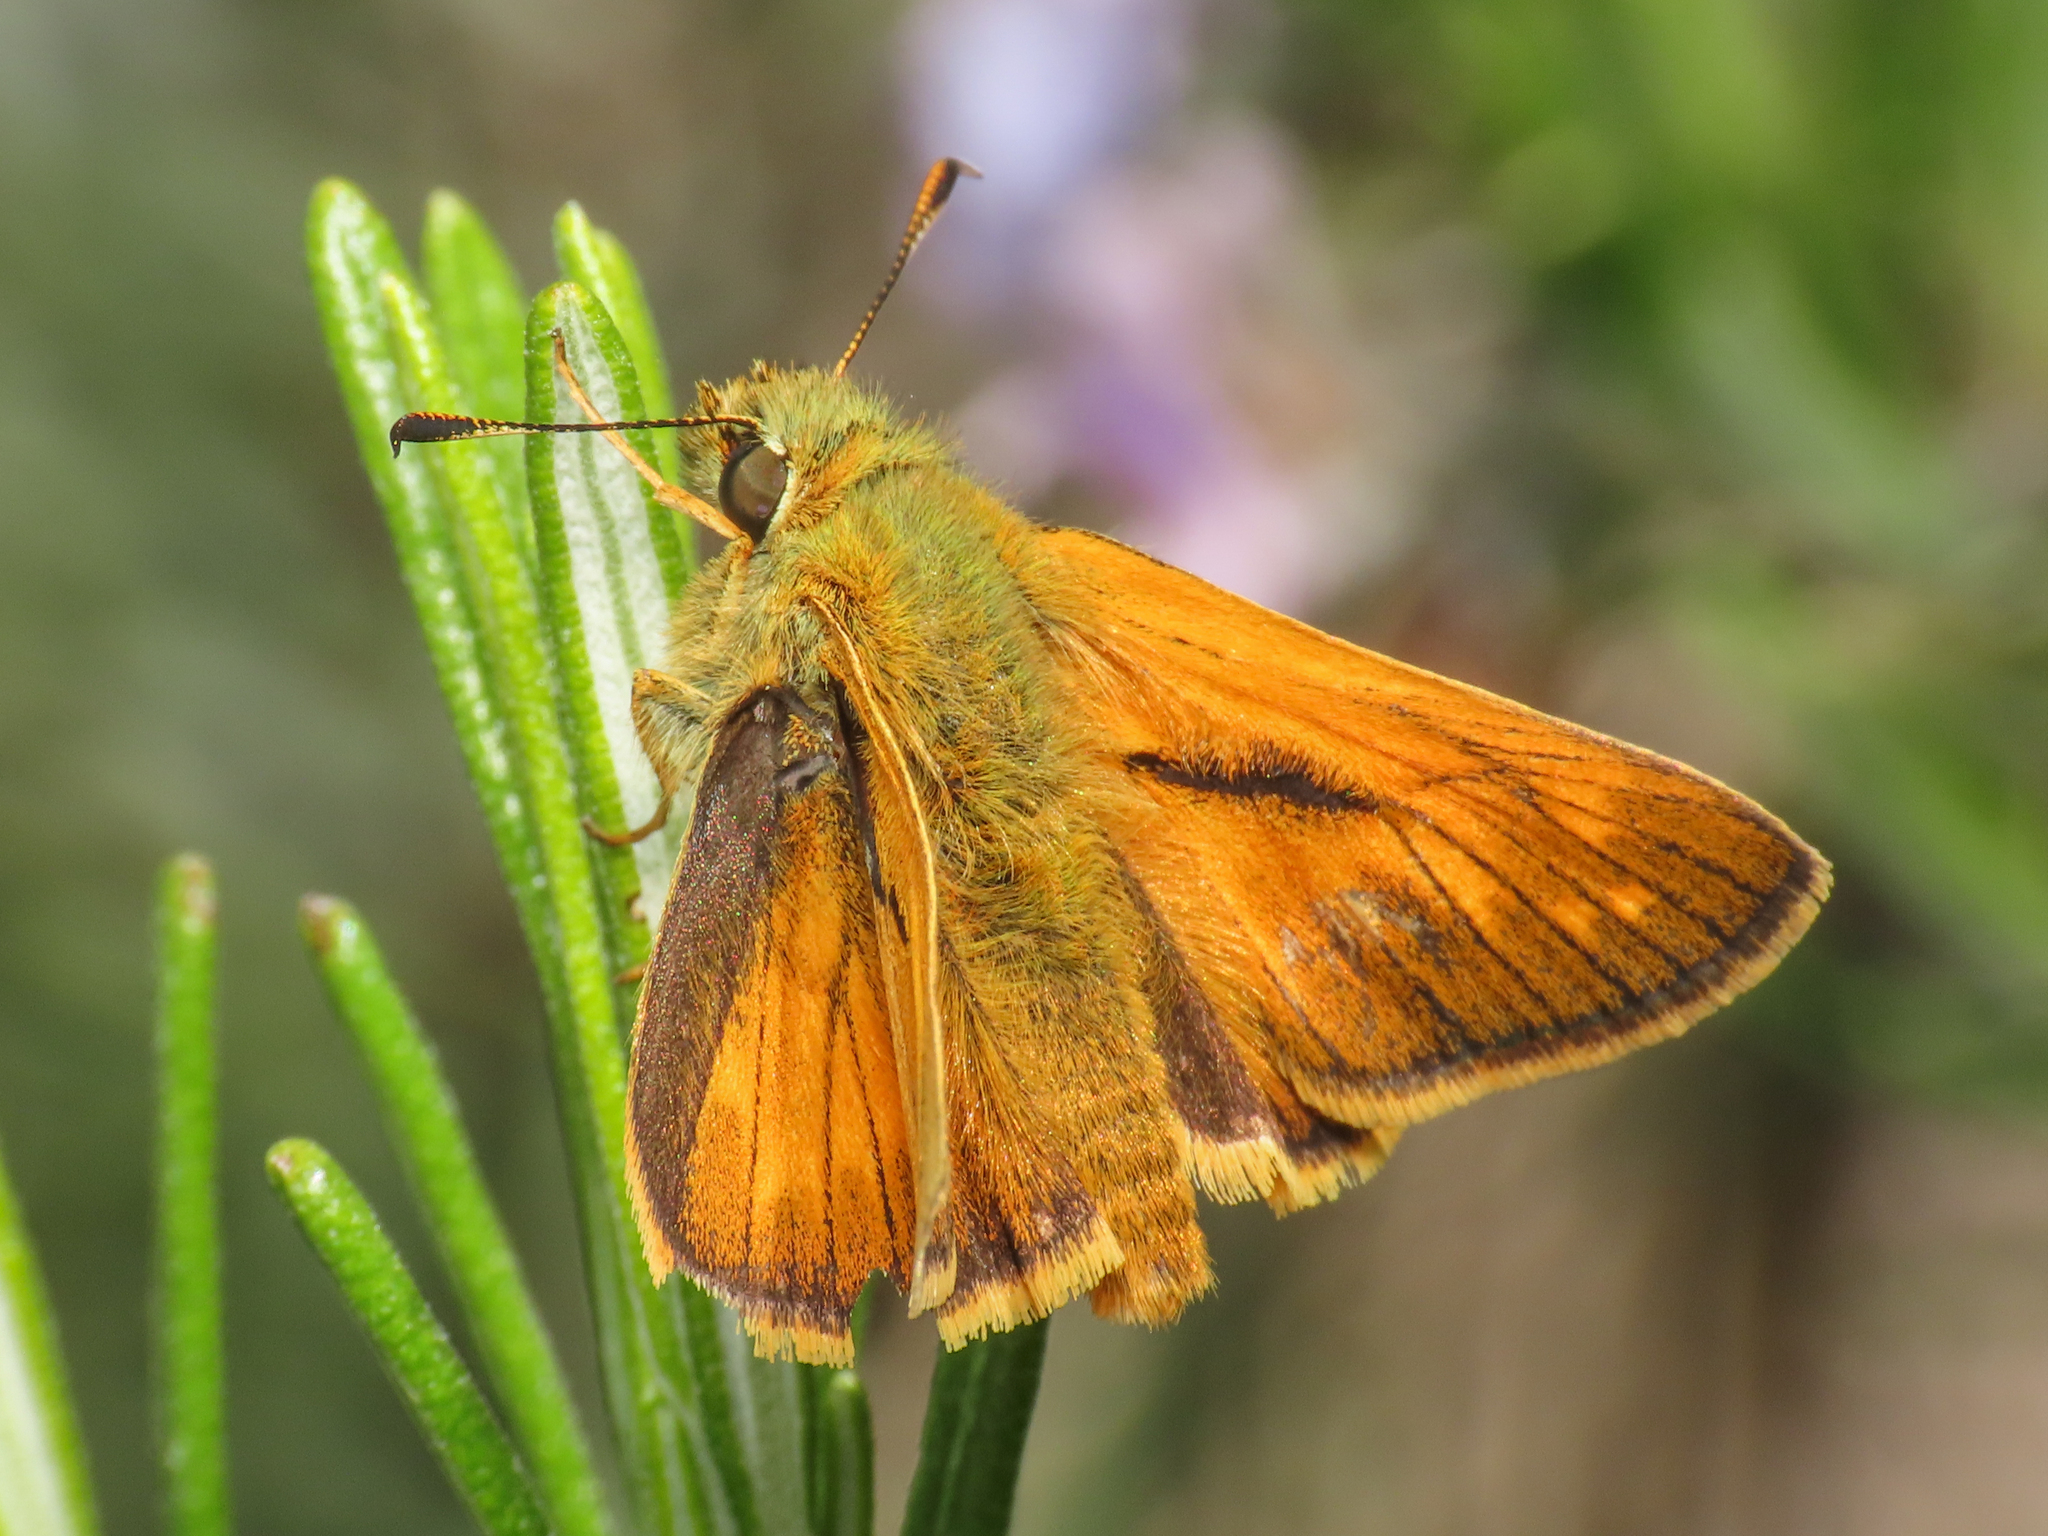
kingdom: Animalia
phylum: Arthropoda
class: Insecta
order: Lepidoptera
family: Hesperiidae
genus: Ochlodes
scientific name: Ochlodes venata
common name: Large skipper
